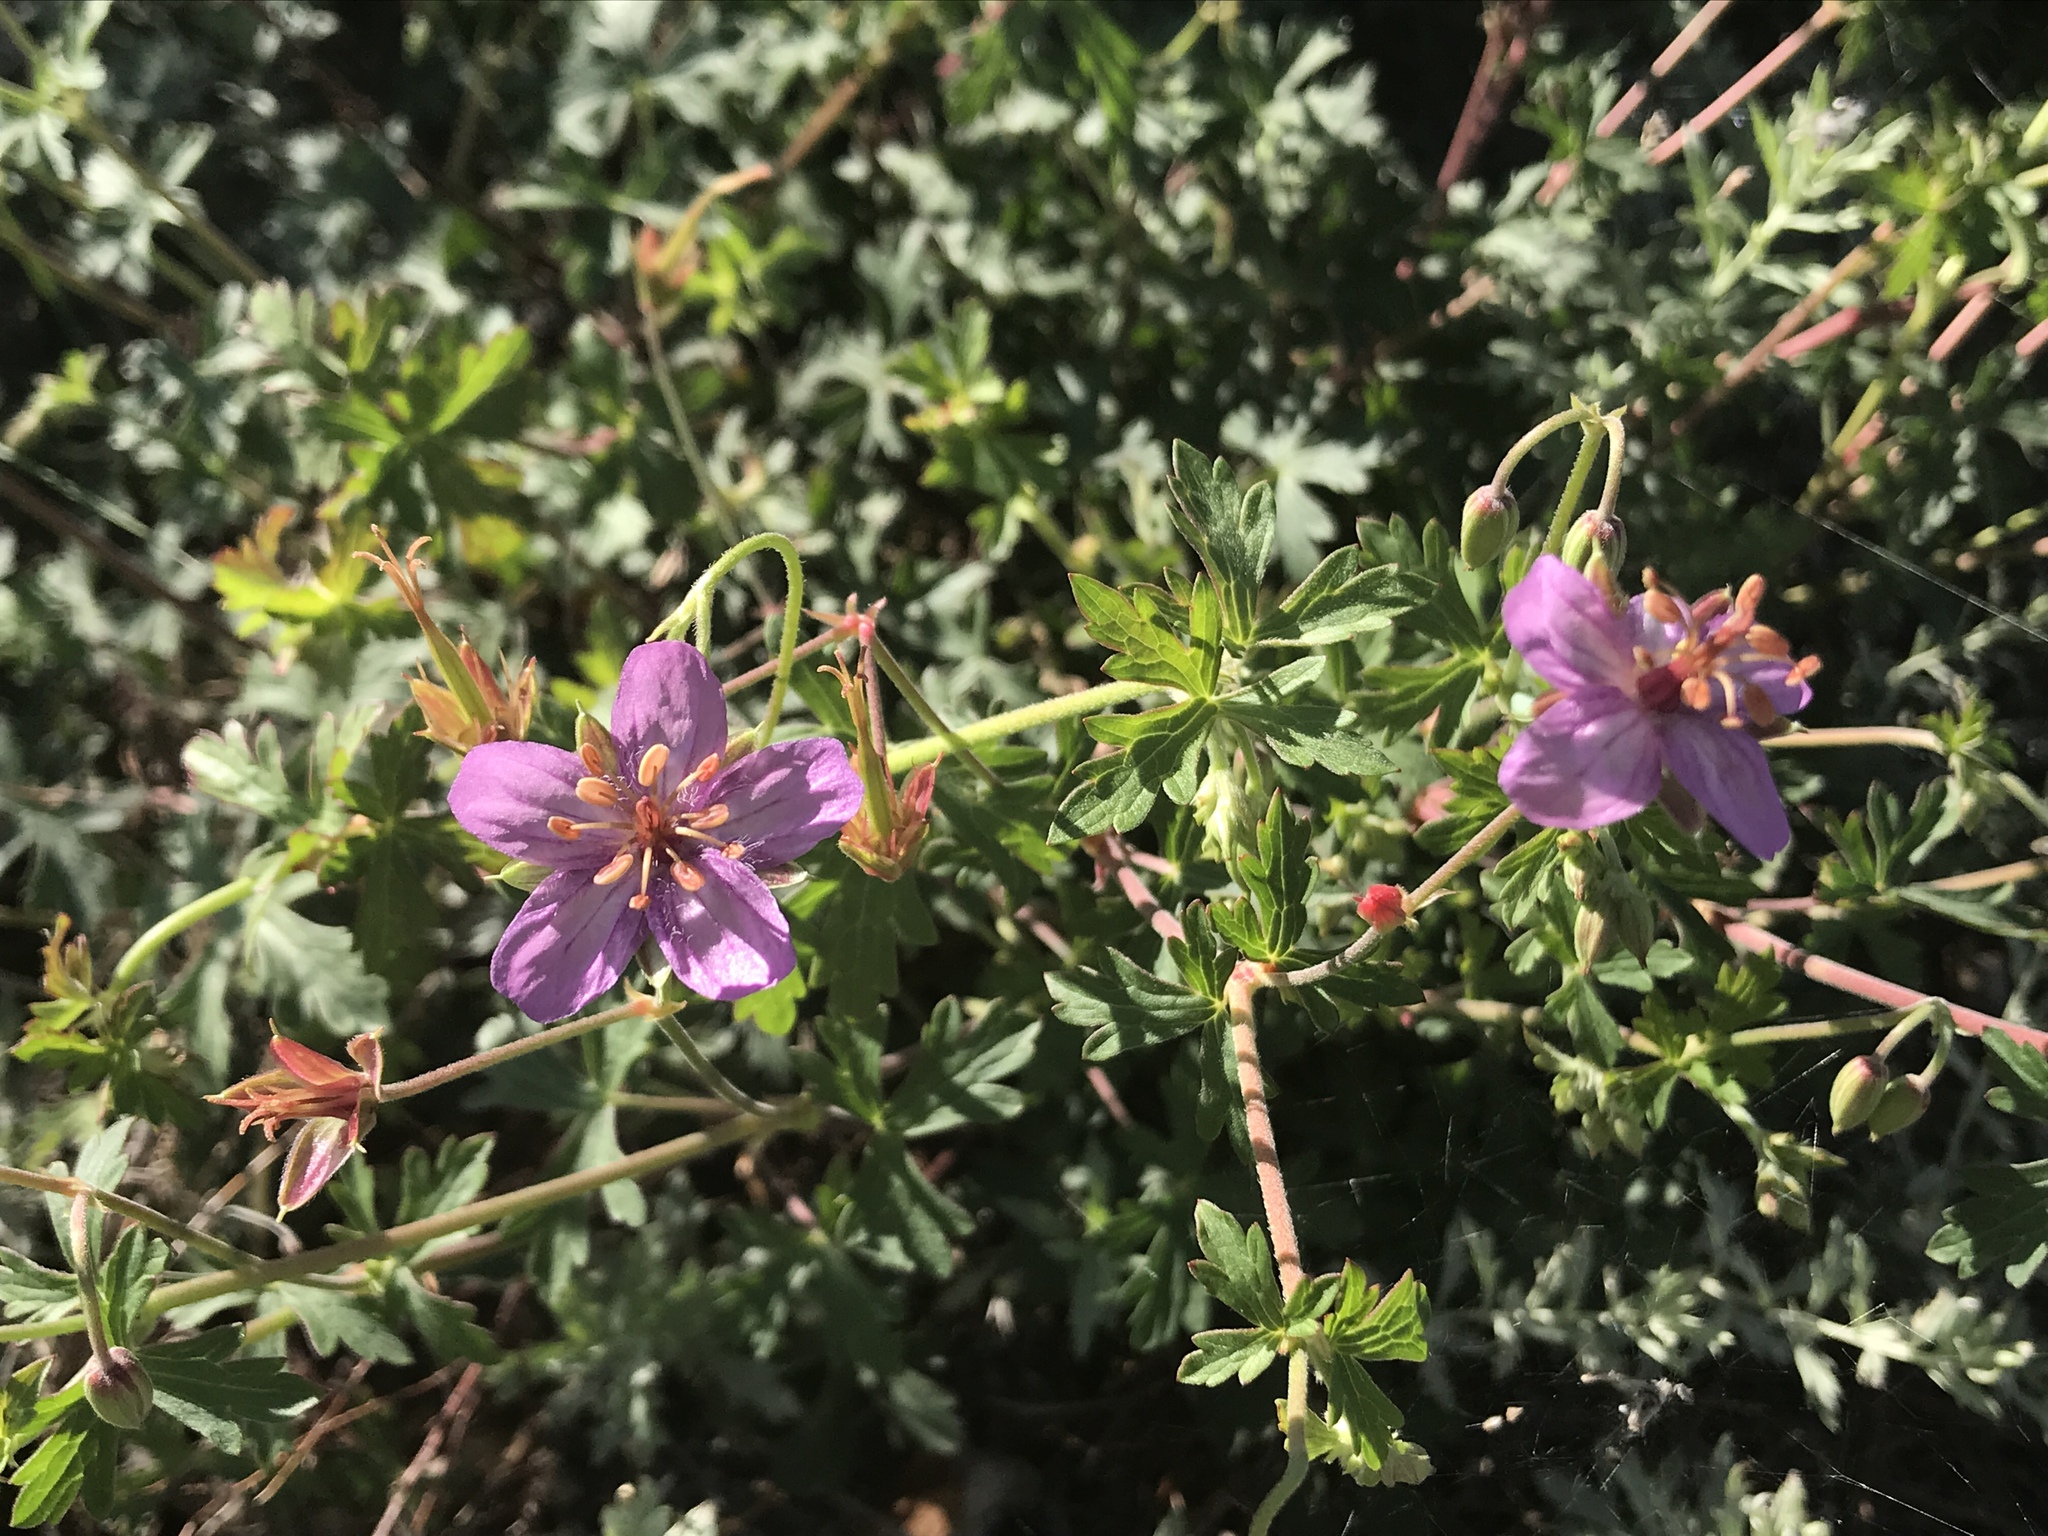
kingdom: Plantae
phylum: Tracheophyta
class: Magnoliopsida
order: Geraniales
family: Geraniaceae
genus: Geranium
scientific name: Geranium caespitosum
